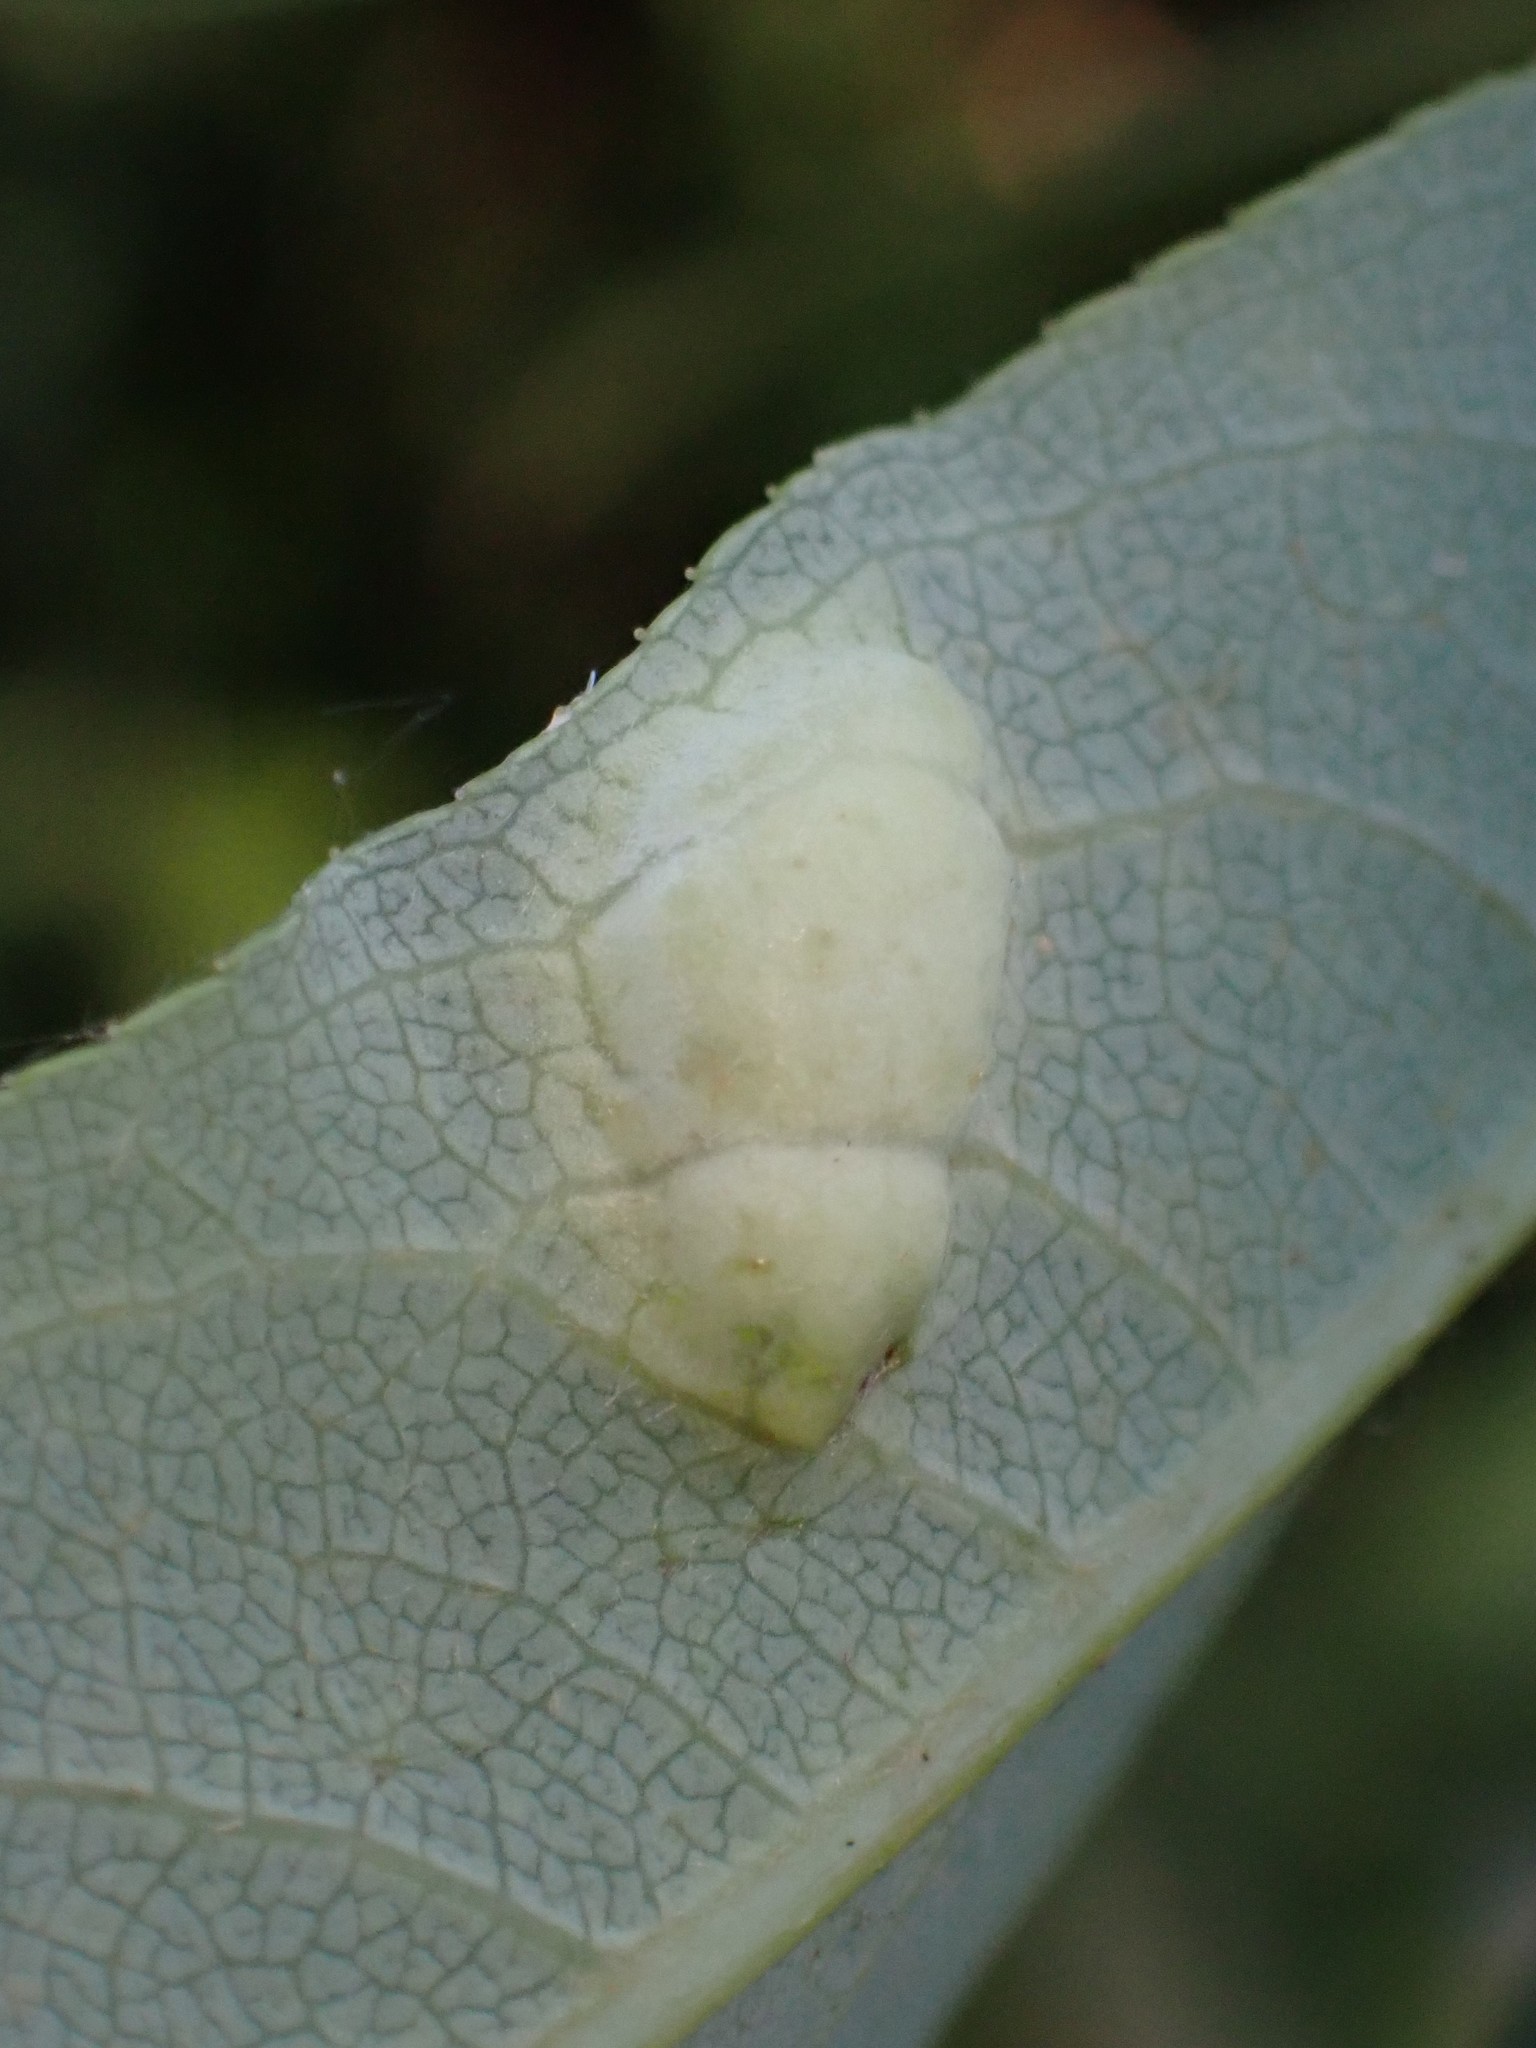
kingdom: Animalia
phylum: Arthropoda
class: Insecta
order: Hymenoptera
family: Tenthredinidae
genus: Pontania
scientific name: Pontania proxima
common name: Common sawfly
